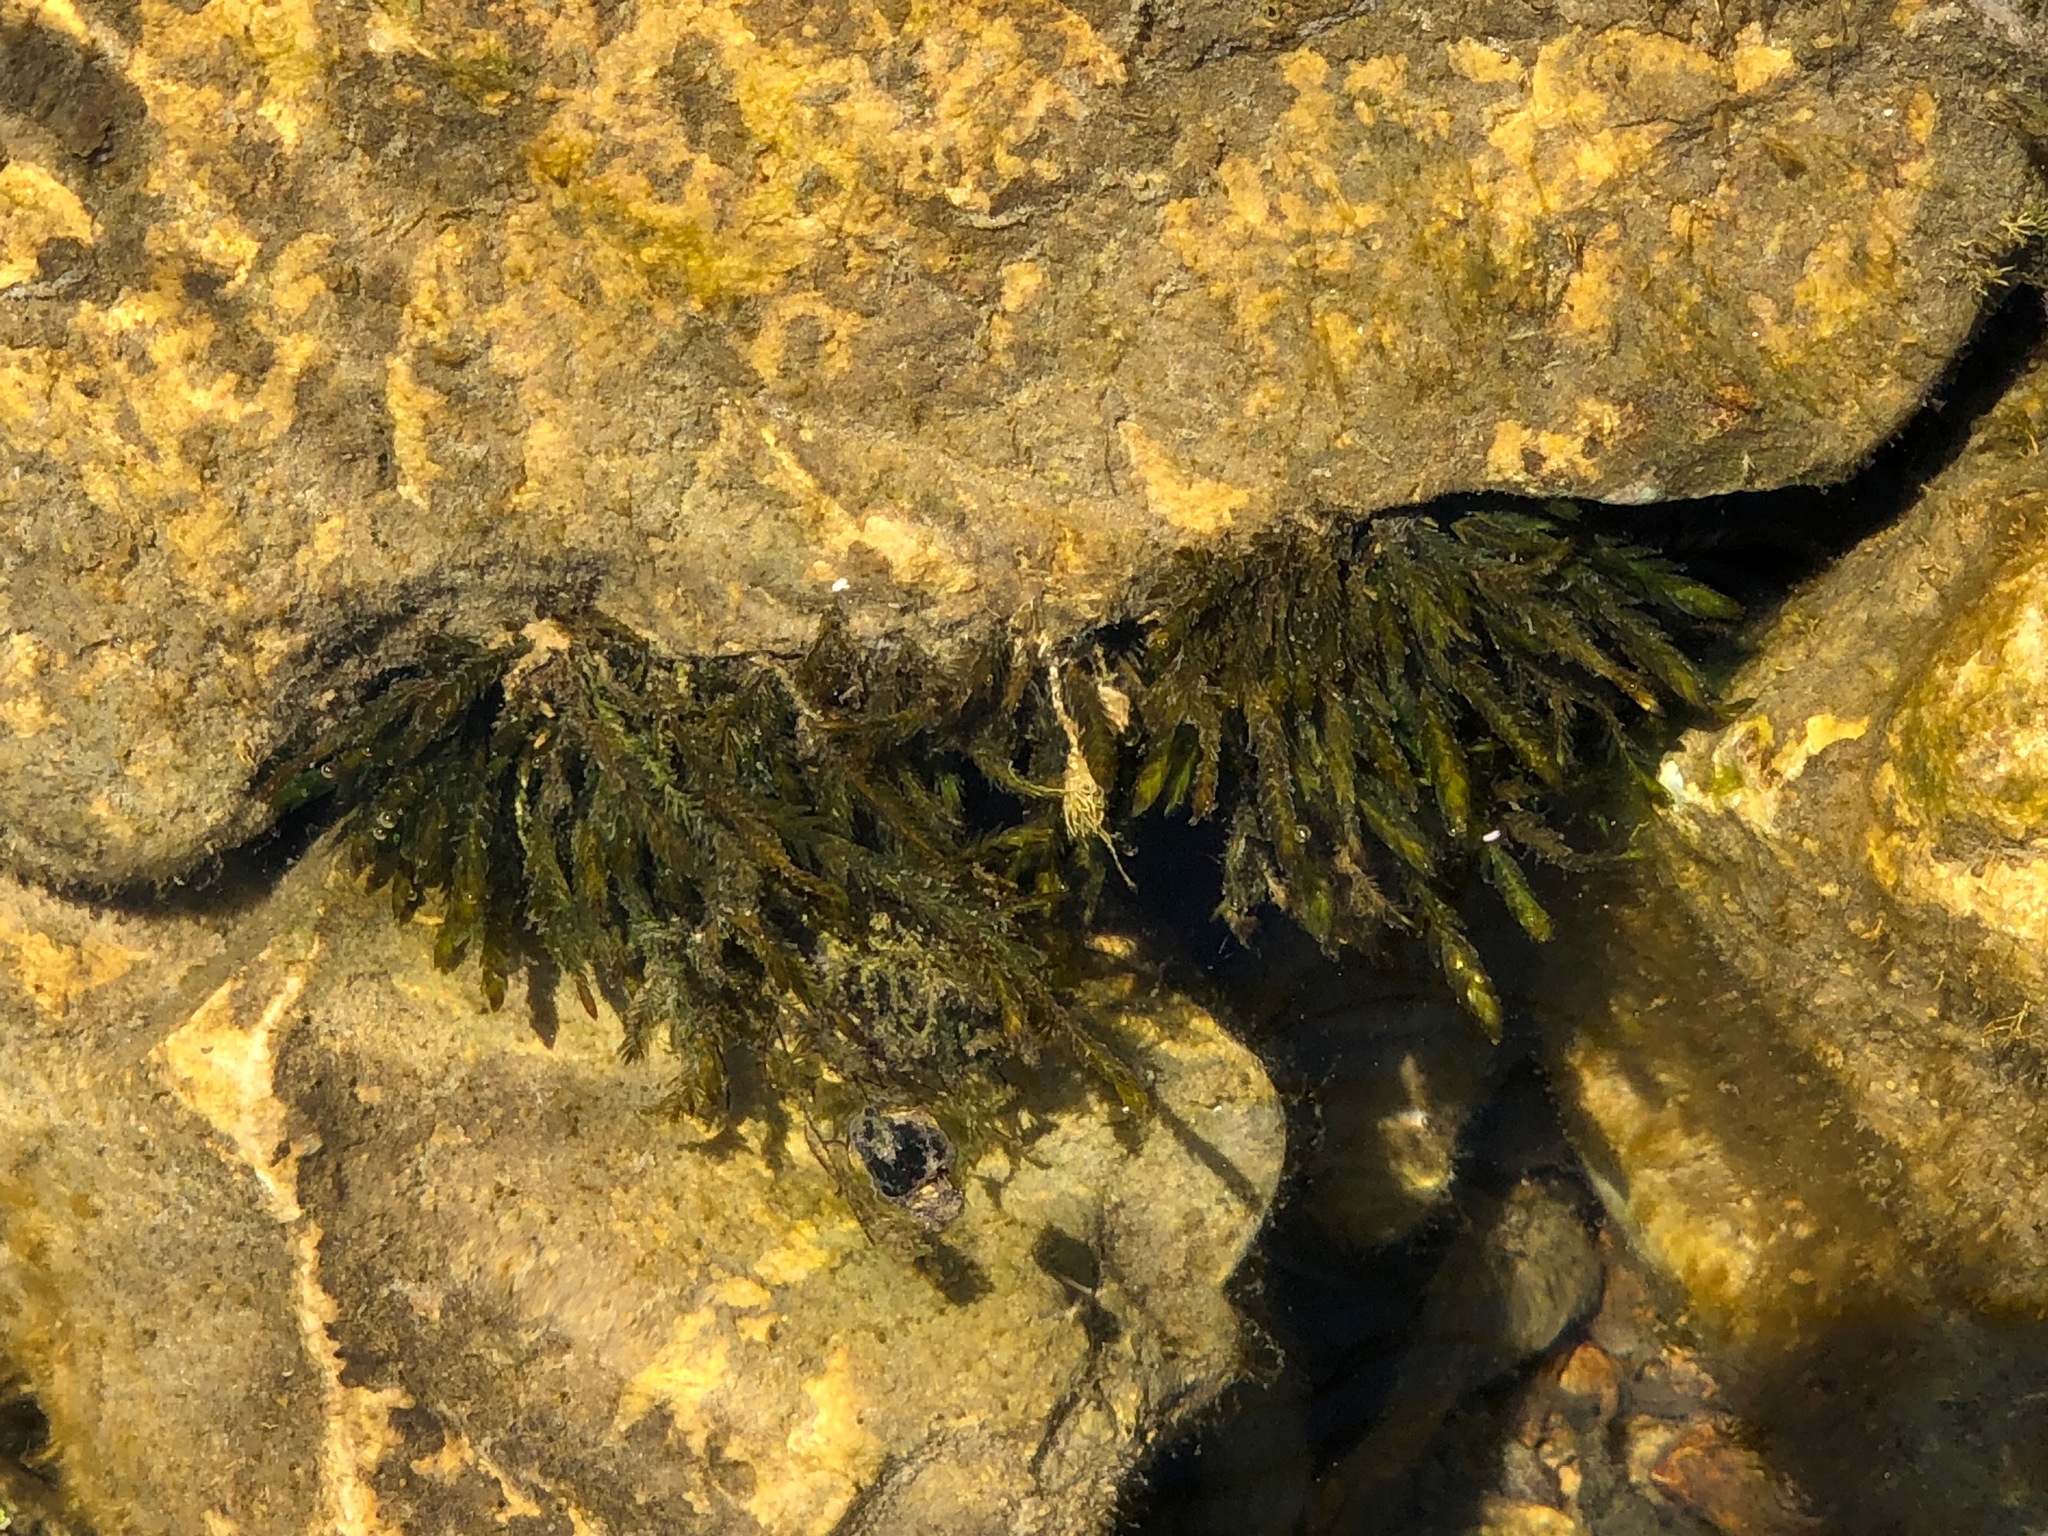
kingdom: Plantae
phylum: Bryophyta
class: Bryopsida
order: Hypnales
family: Fontinalaceae
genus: Fontinalis
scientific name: Fontinalis antipyretica
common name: Greater water-moss
